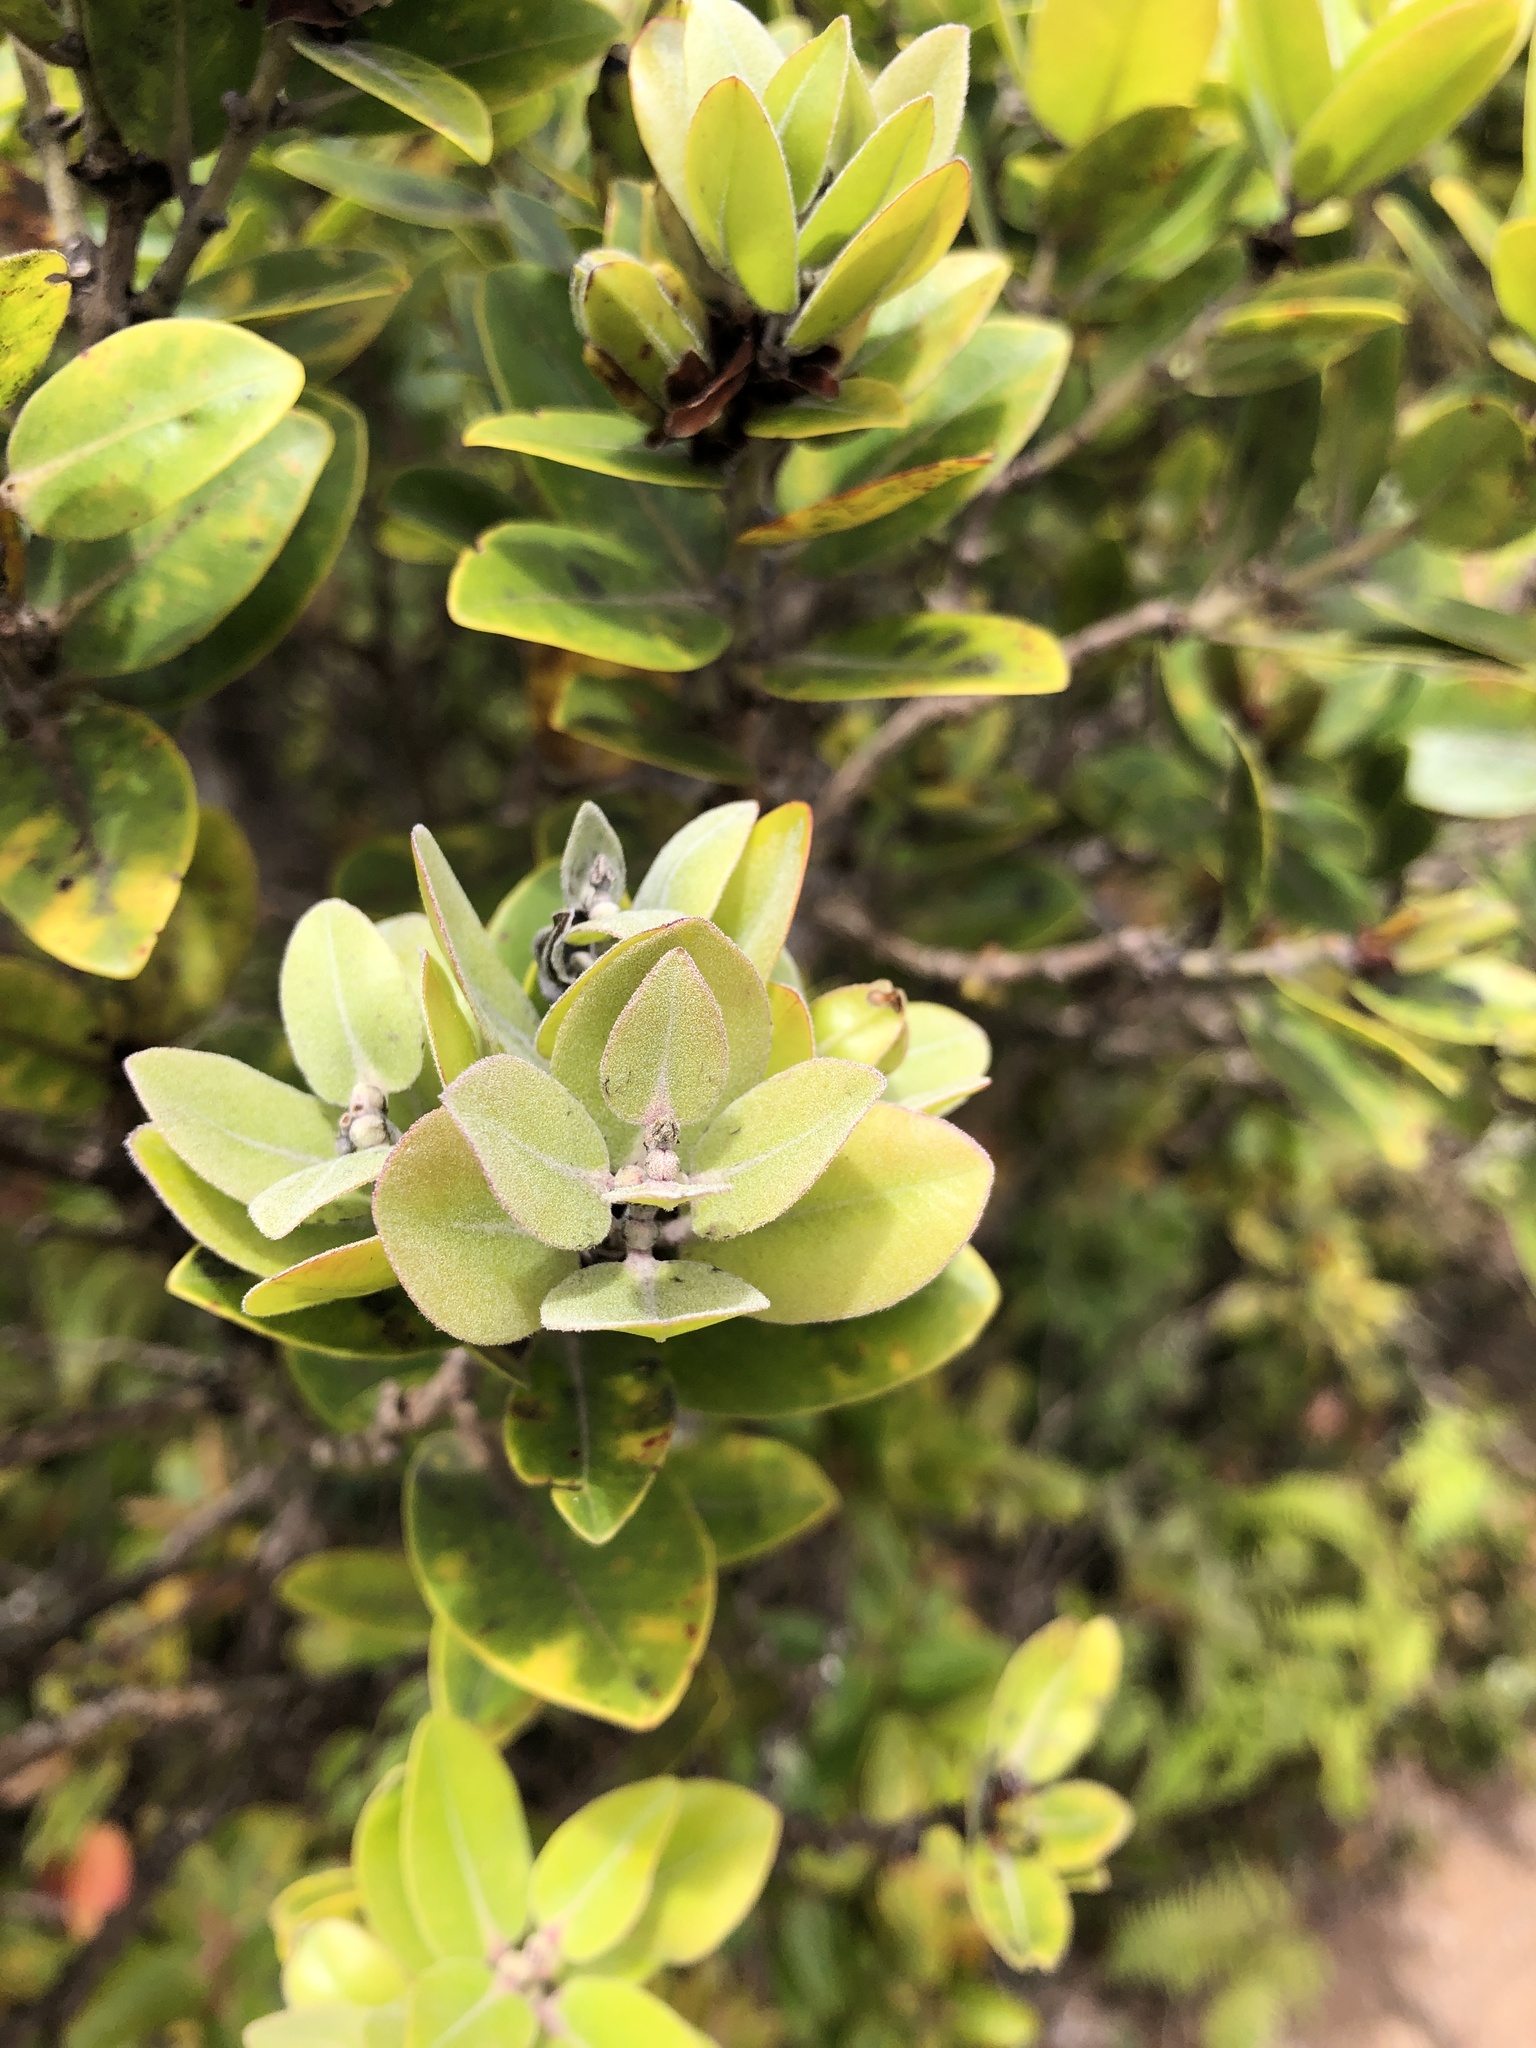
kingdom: Plantae
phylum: Tracheophyta
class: Magnoliopsida
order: Myrtales
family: Myrtaceae
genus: Metrosideros
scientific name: Metrosideros polymorpha
